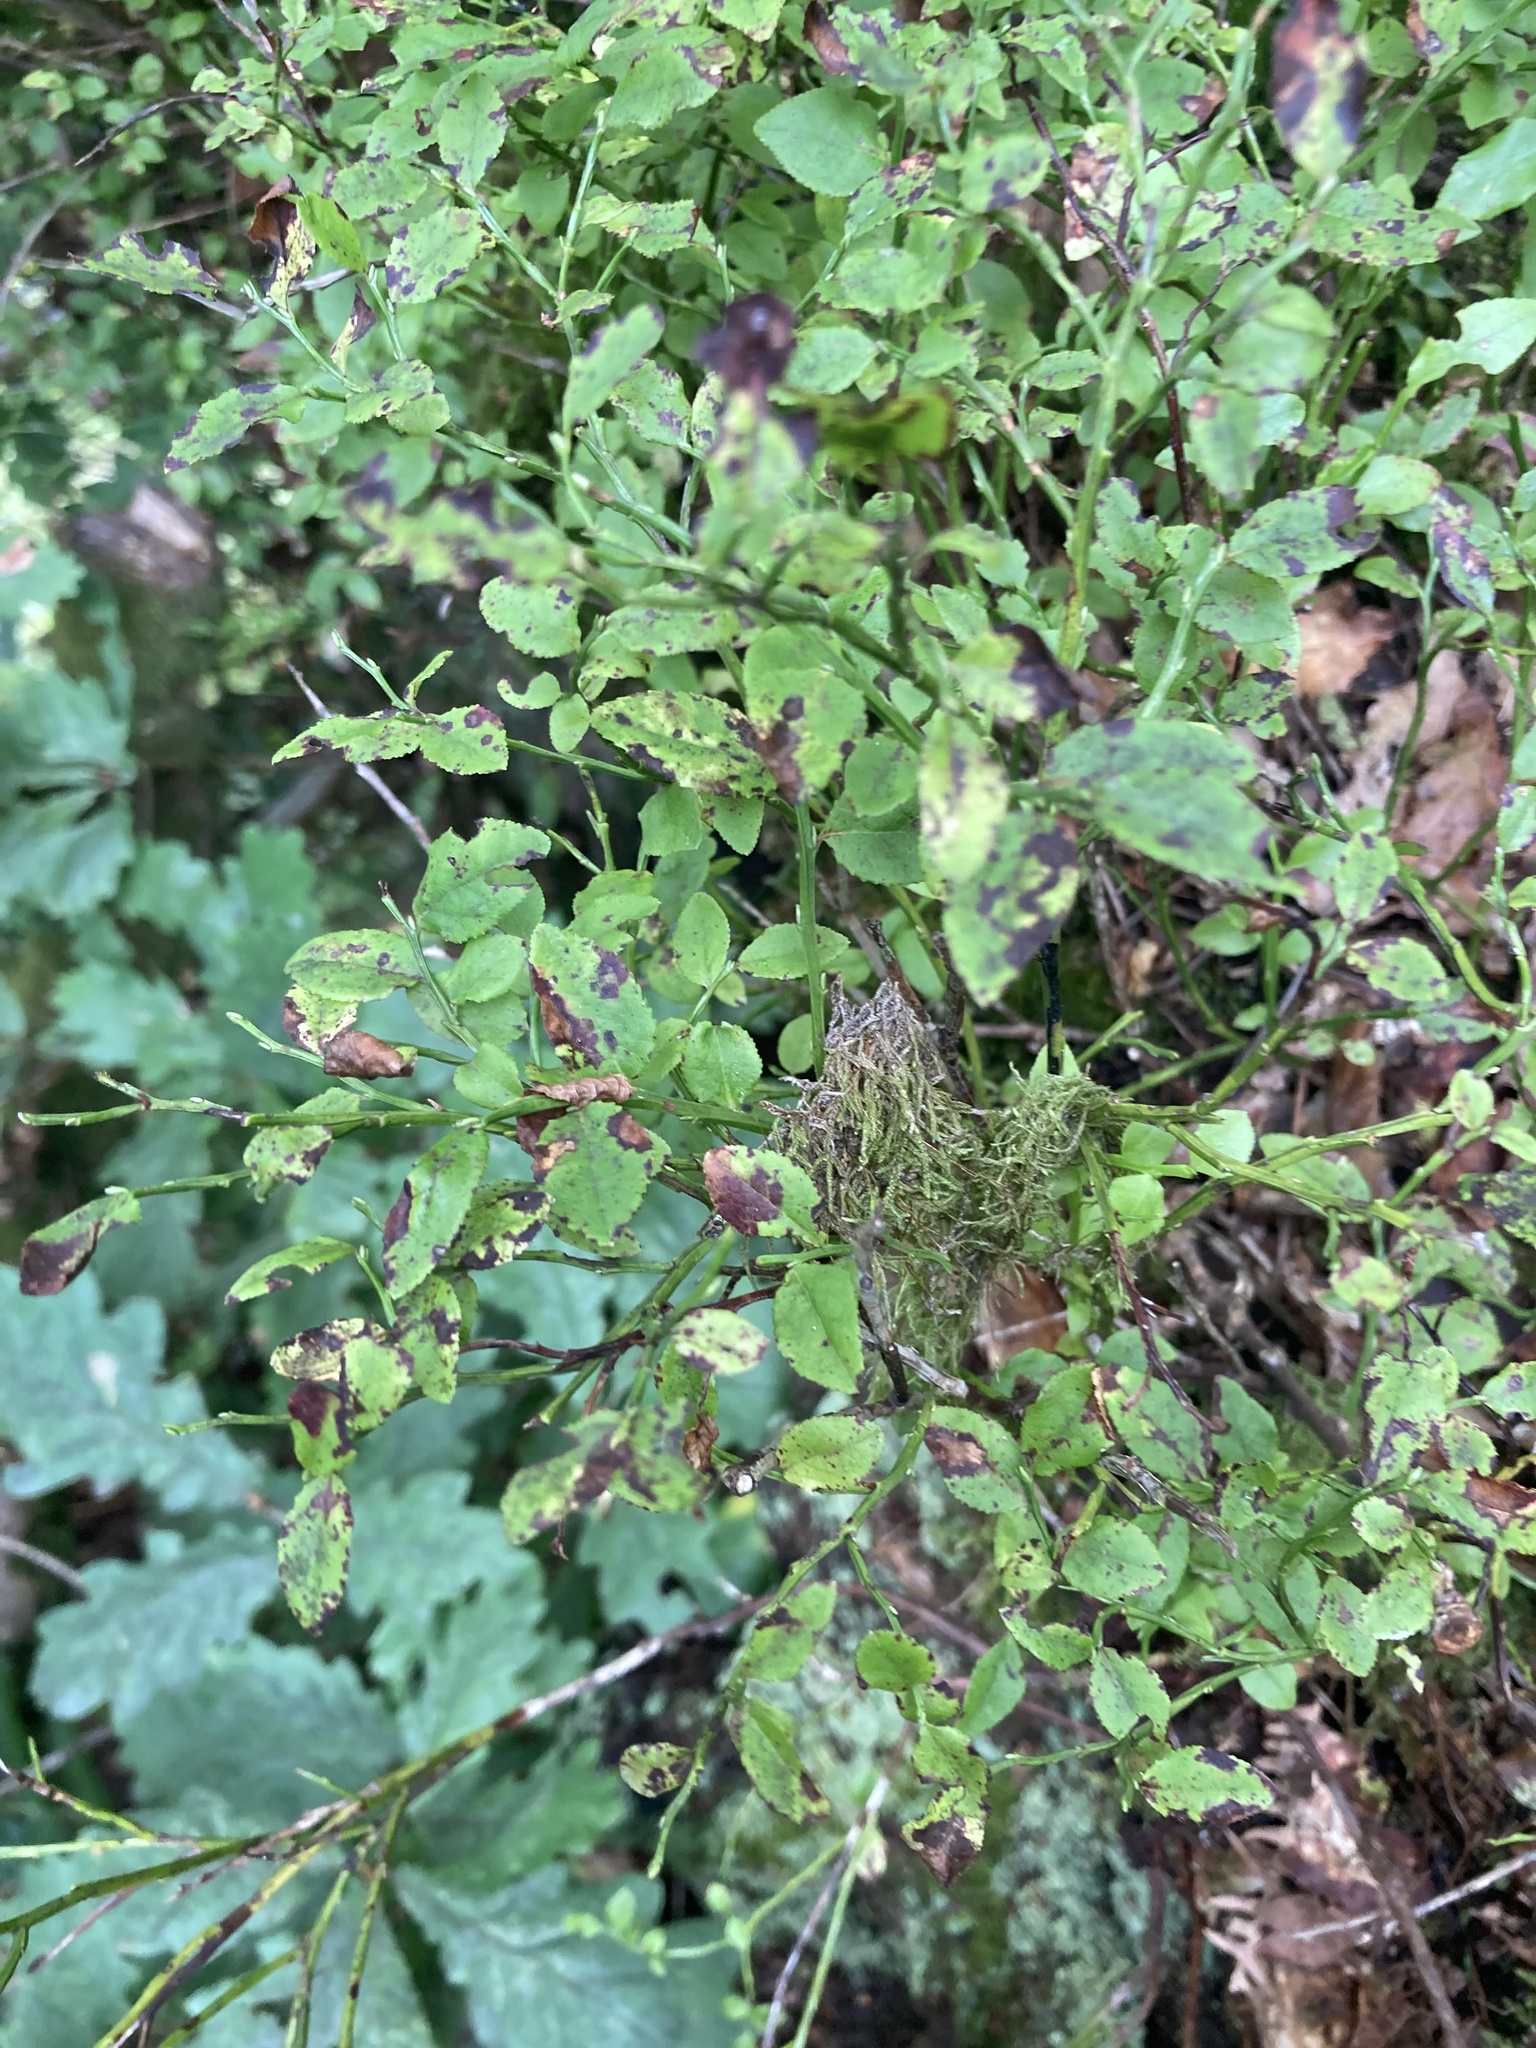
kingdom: Plantae
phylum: Tracheophyta
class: Magnoliopsida
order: Ericales
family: Ericaceae
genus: Vaccinium
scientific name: Vaccinium myrtillus
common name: Bilberry
